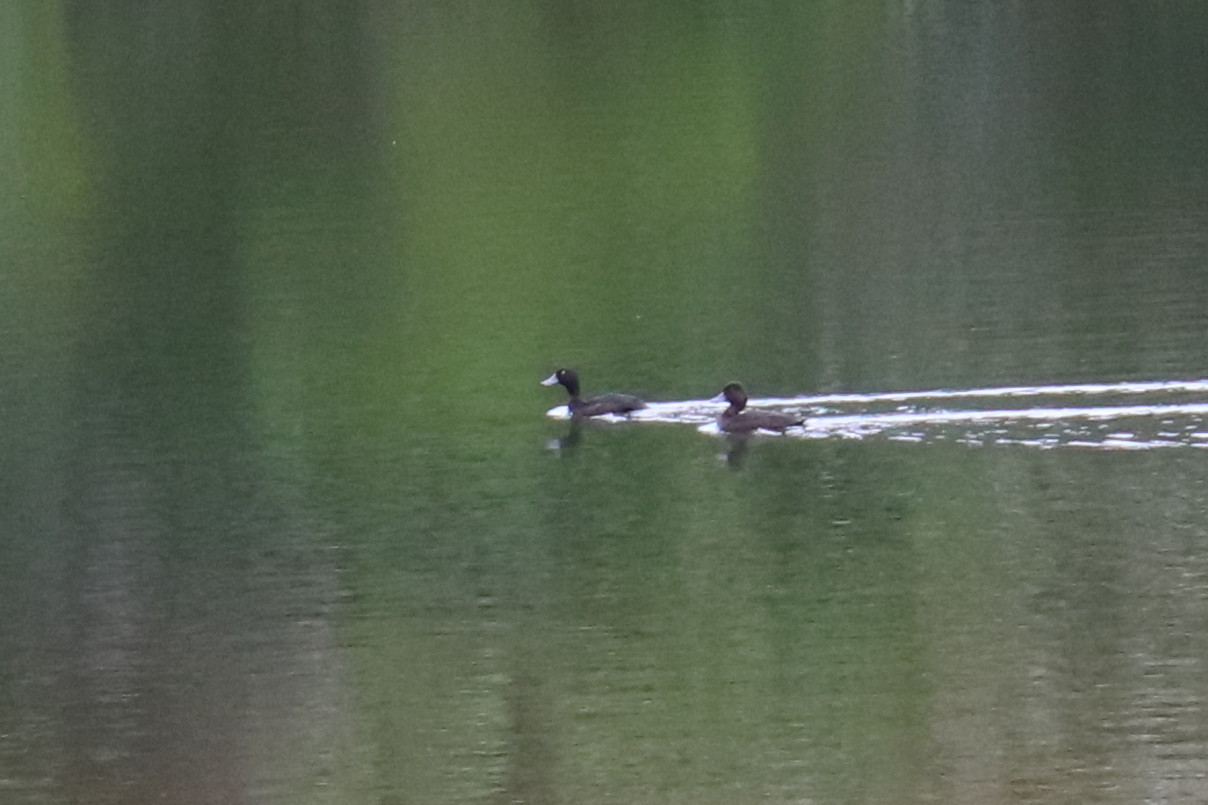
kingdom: Animalia
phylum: Chordata
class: Aves
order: Anseriformes
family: Anatidae
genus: Aythya
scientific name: Aythya novaeseelandiae
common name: New zealand scaup
